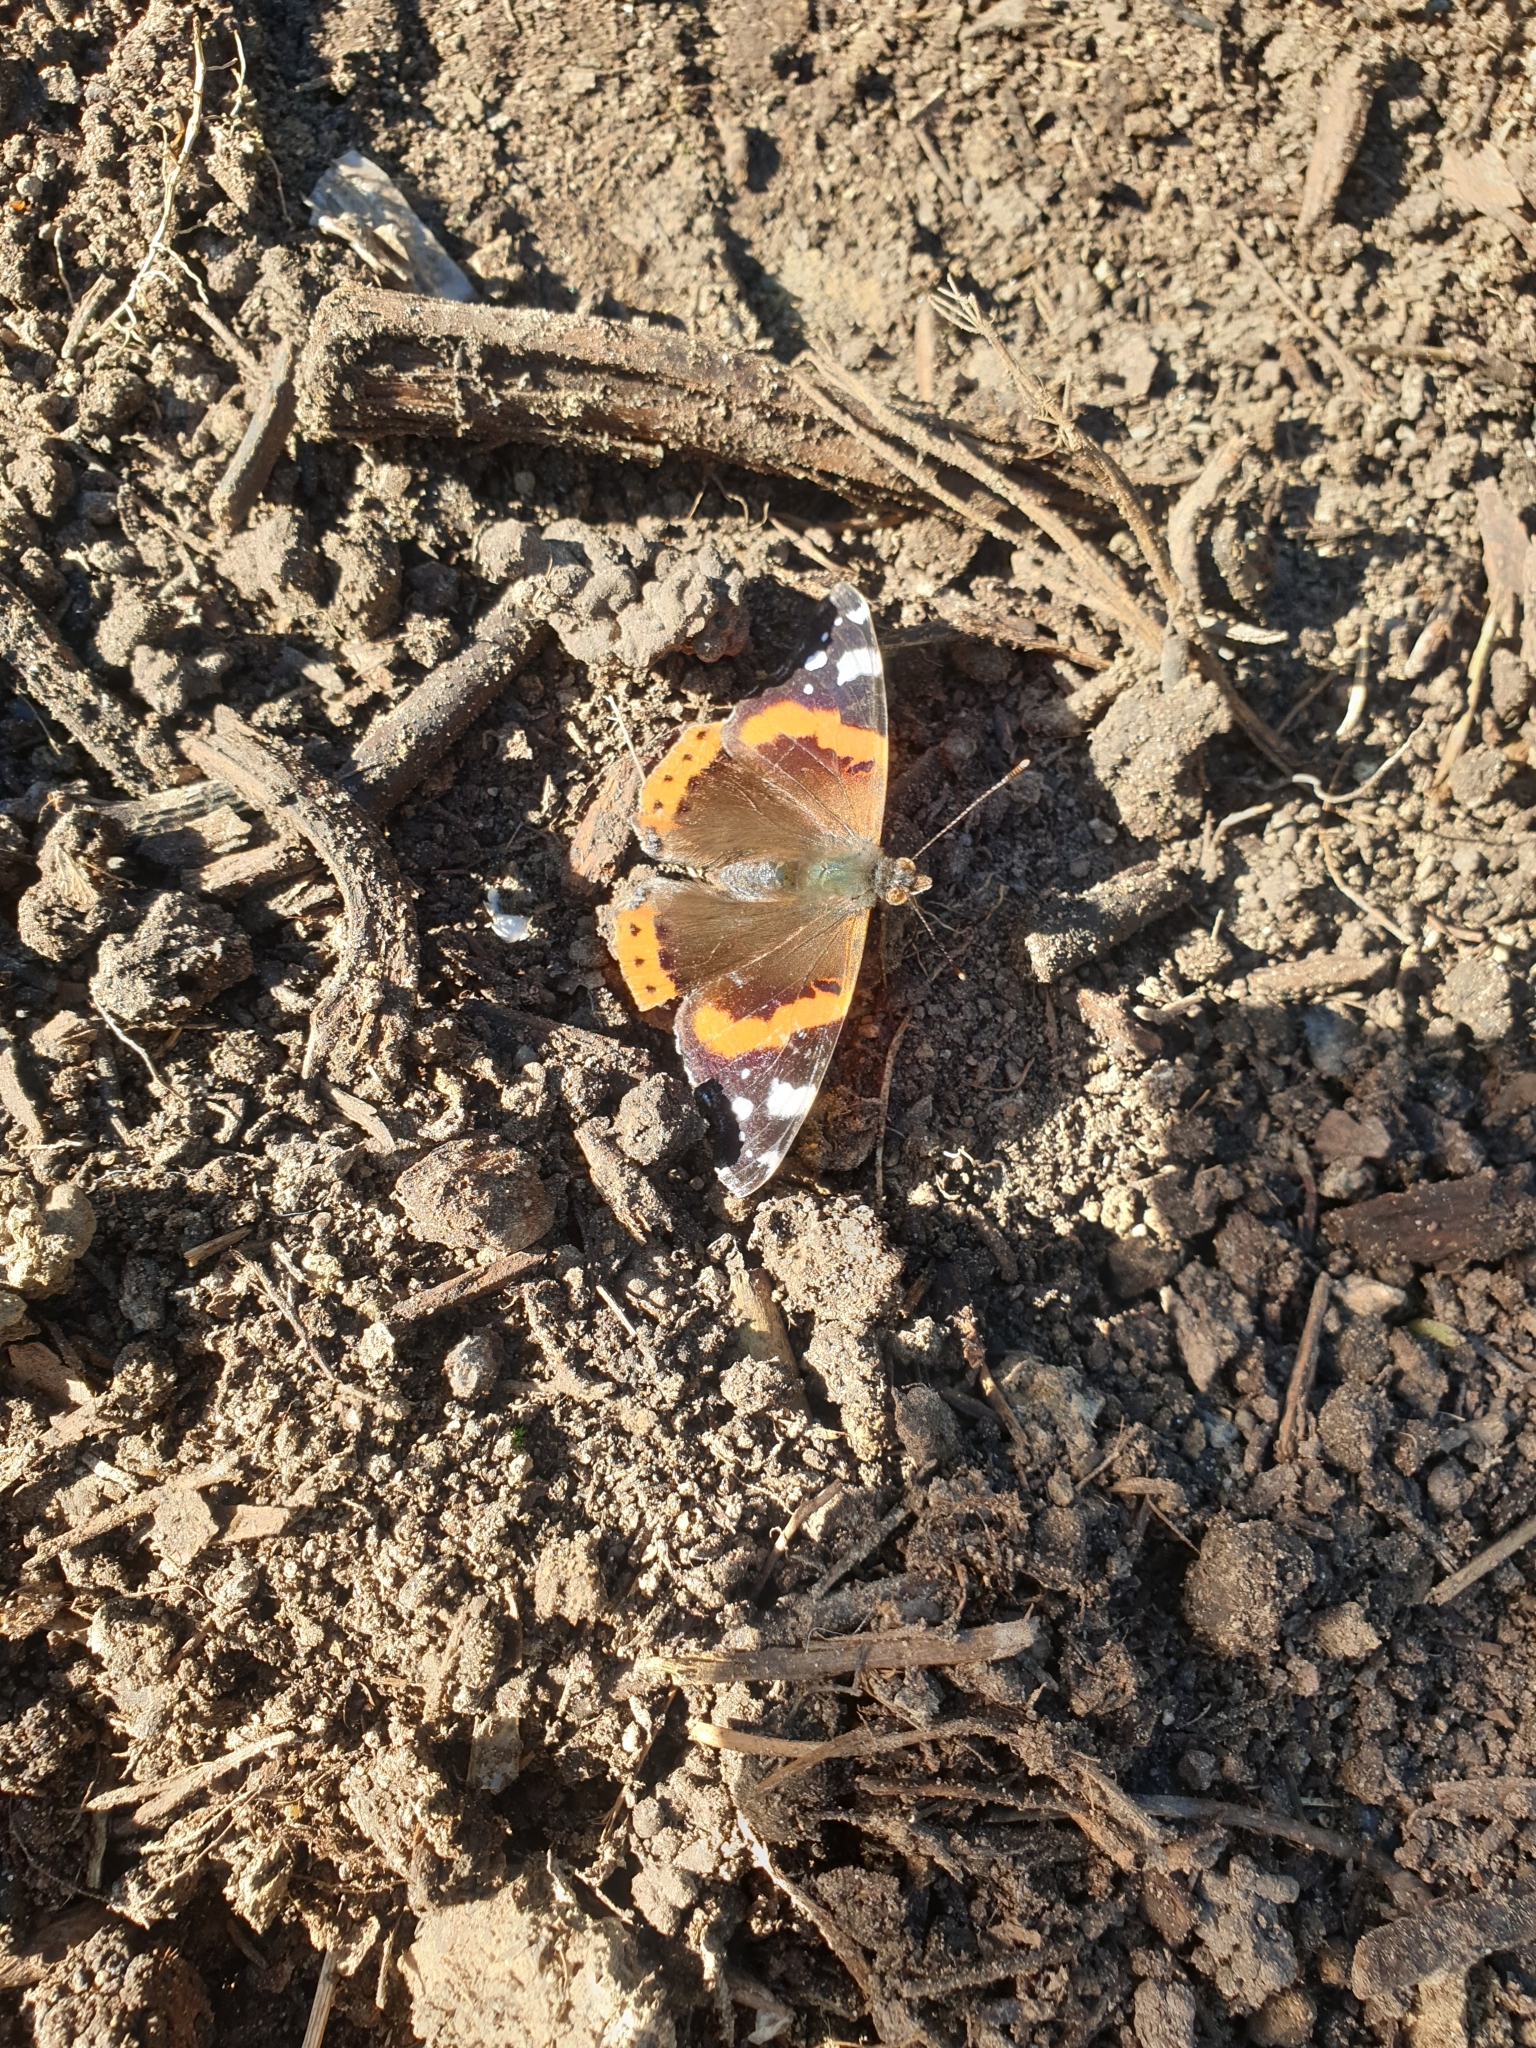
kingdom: Animalia
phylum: Arthropoda
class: Insecta
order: Lepidoptera
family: Nymphalidae
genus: Vanessa
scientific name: Vanessa atalanta
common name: Red admiral
